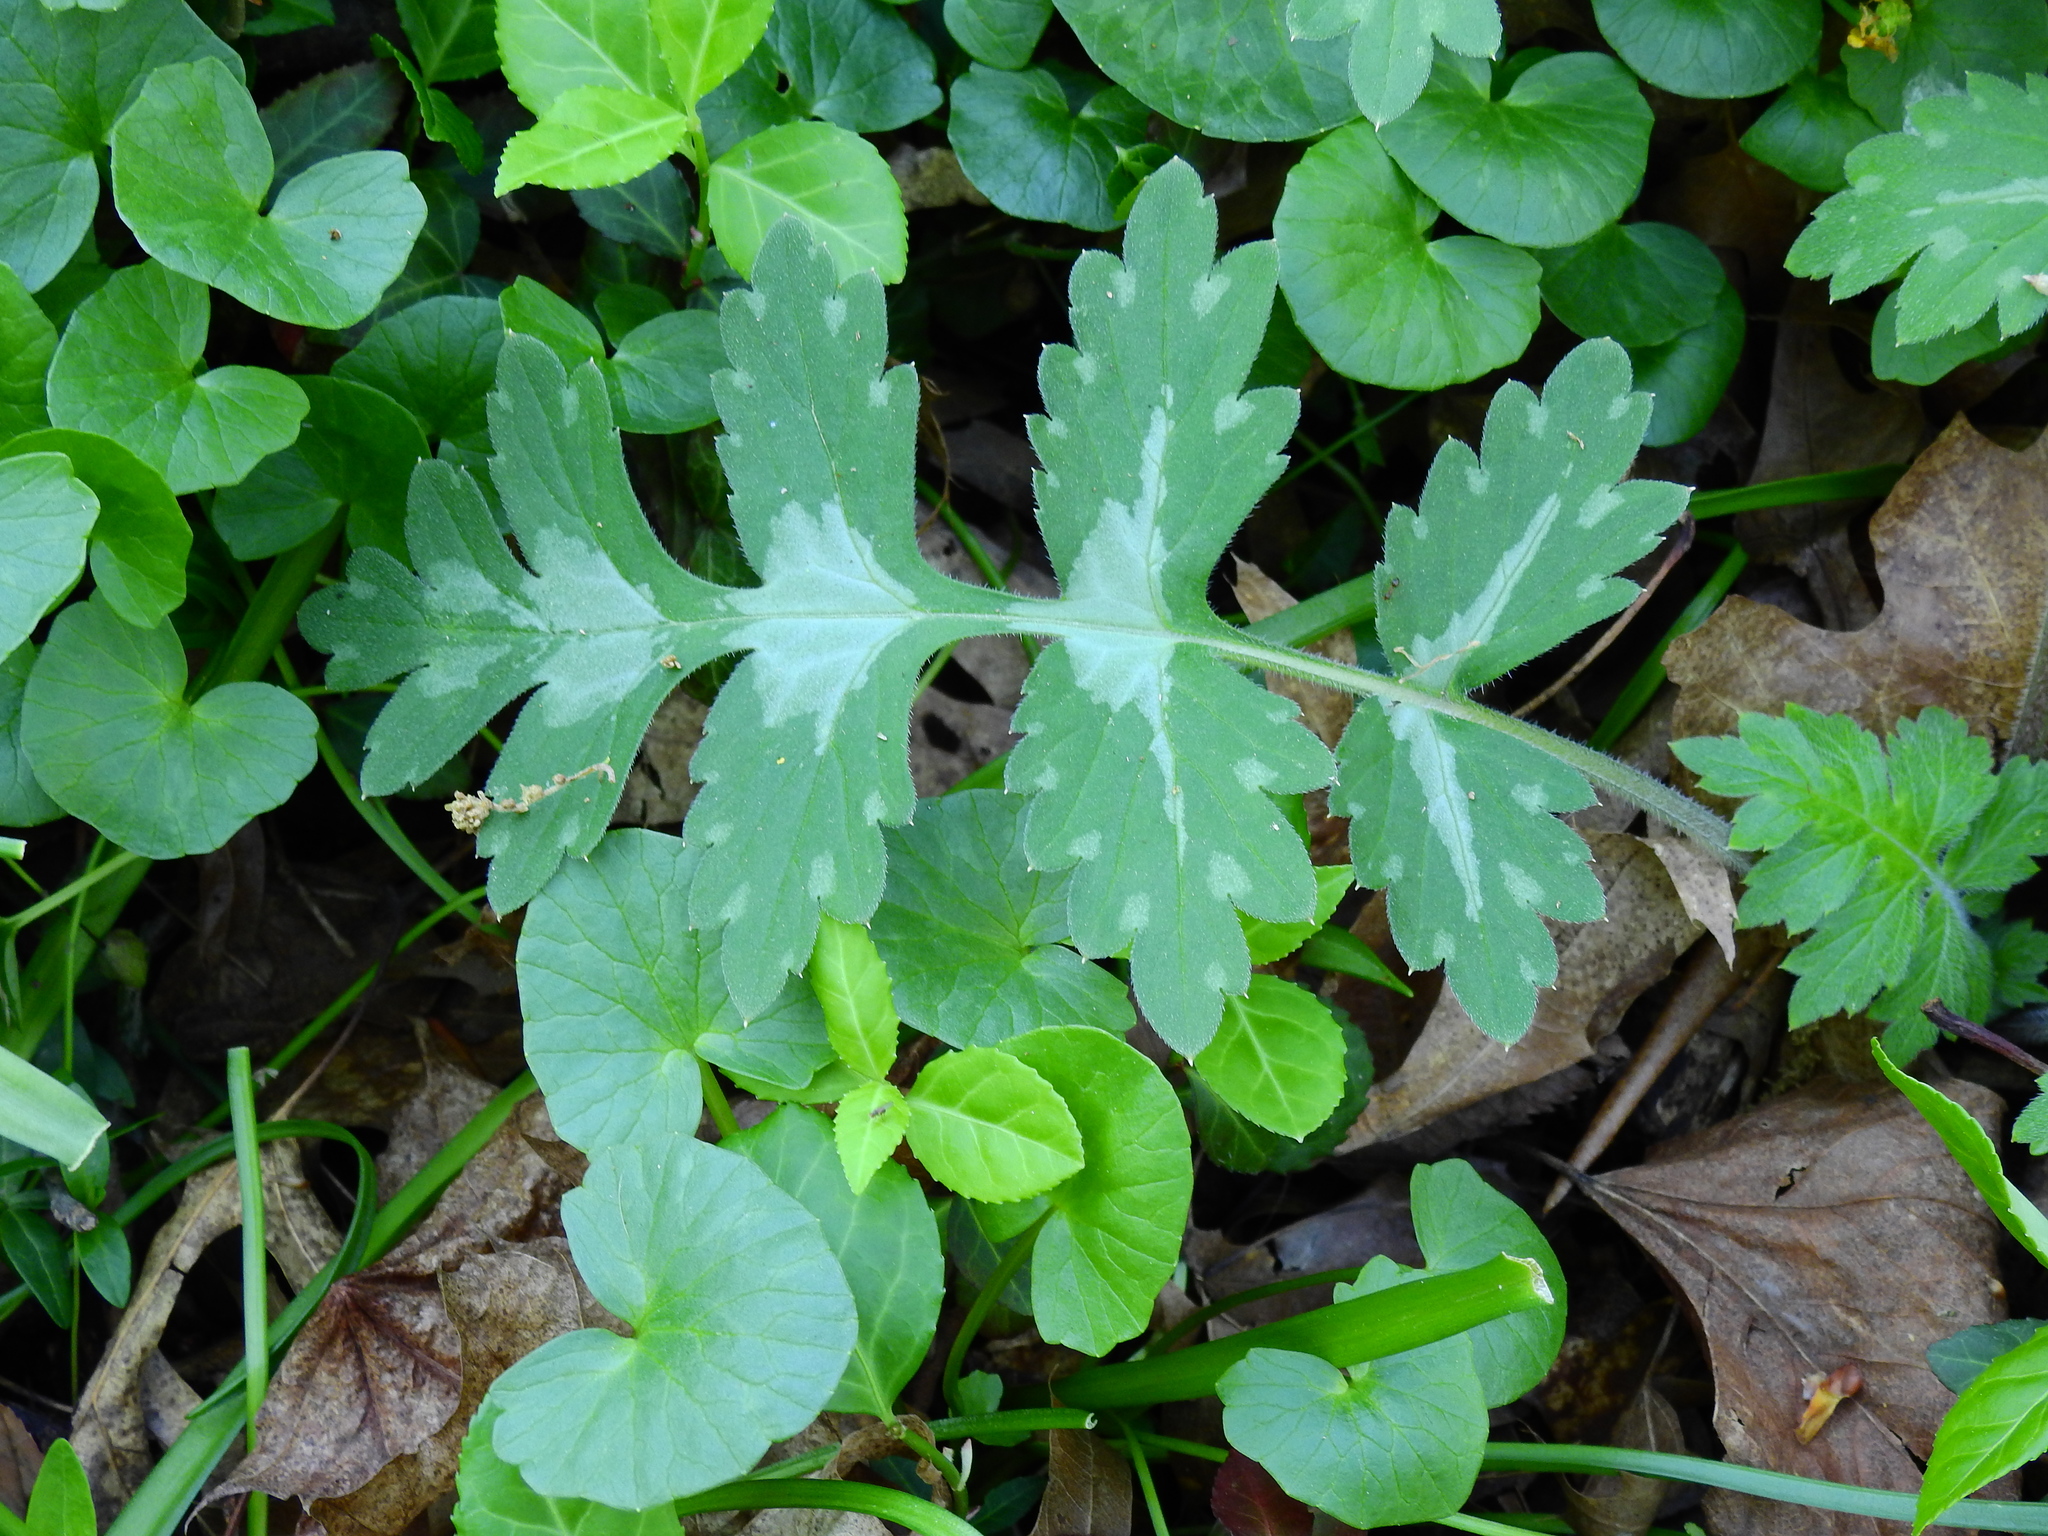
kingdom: Plantae
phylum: Tracheophyta
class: Magnoliopsida
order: Boraginales
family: Hydrophyllaceae
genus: Hydrophyllum
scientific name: Hydrophyllum macrophyllum
